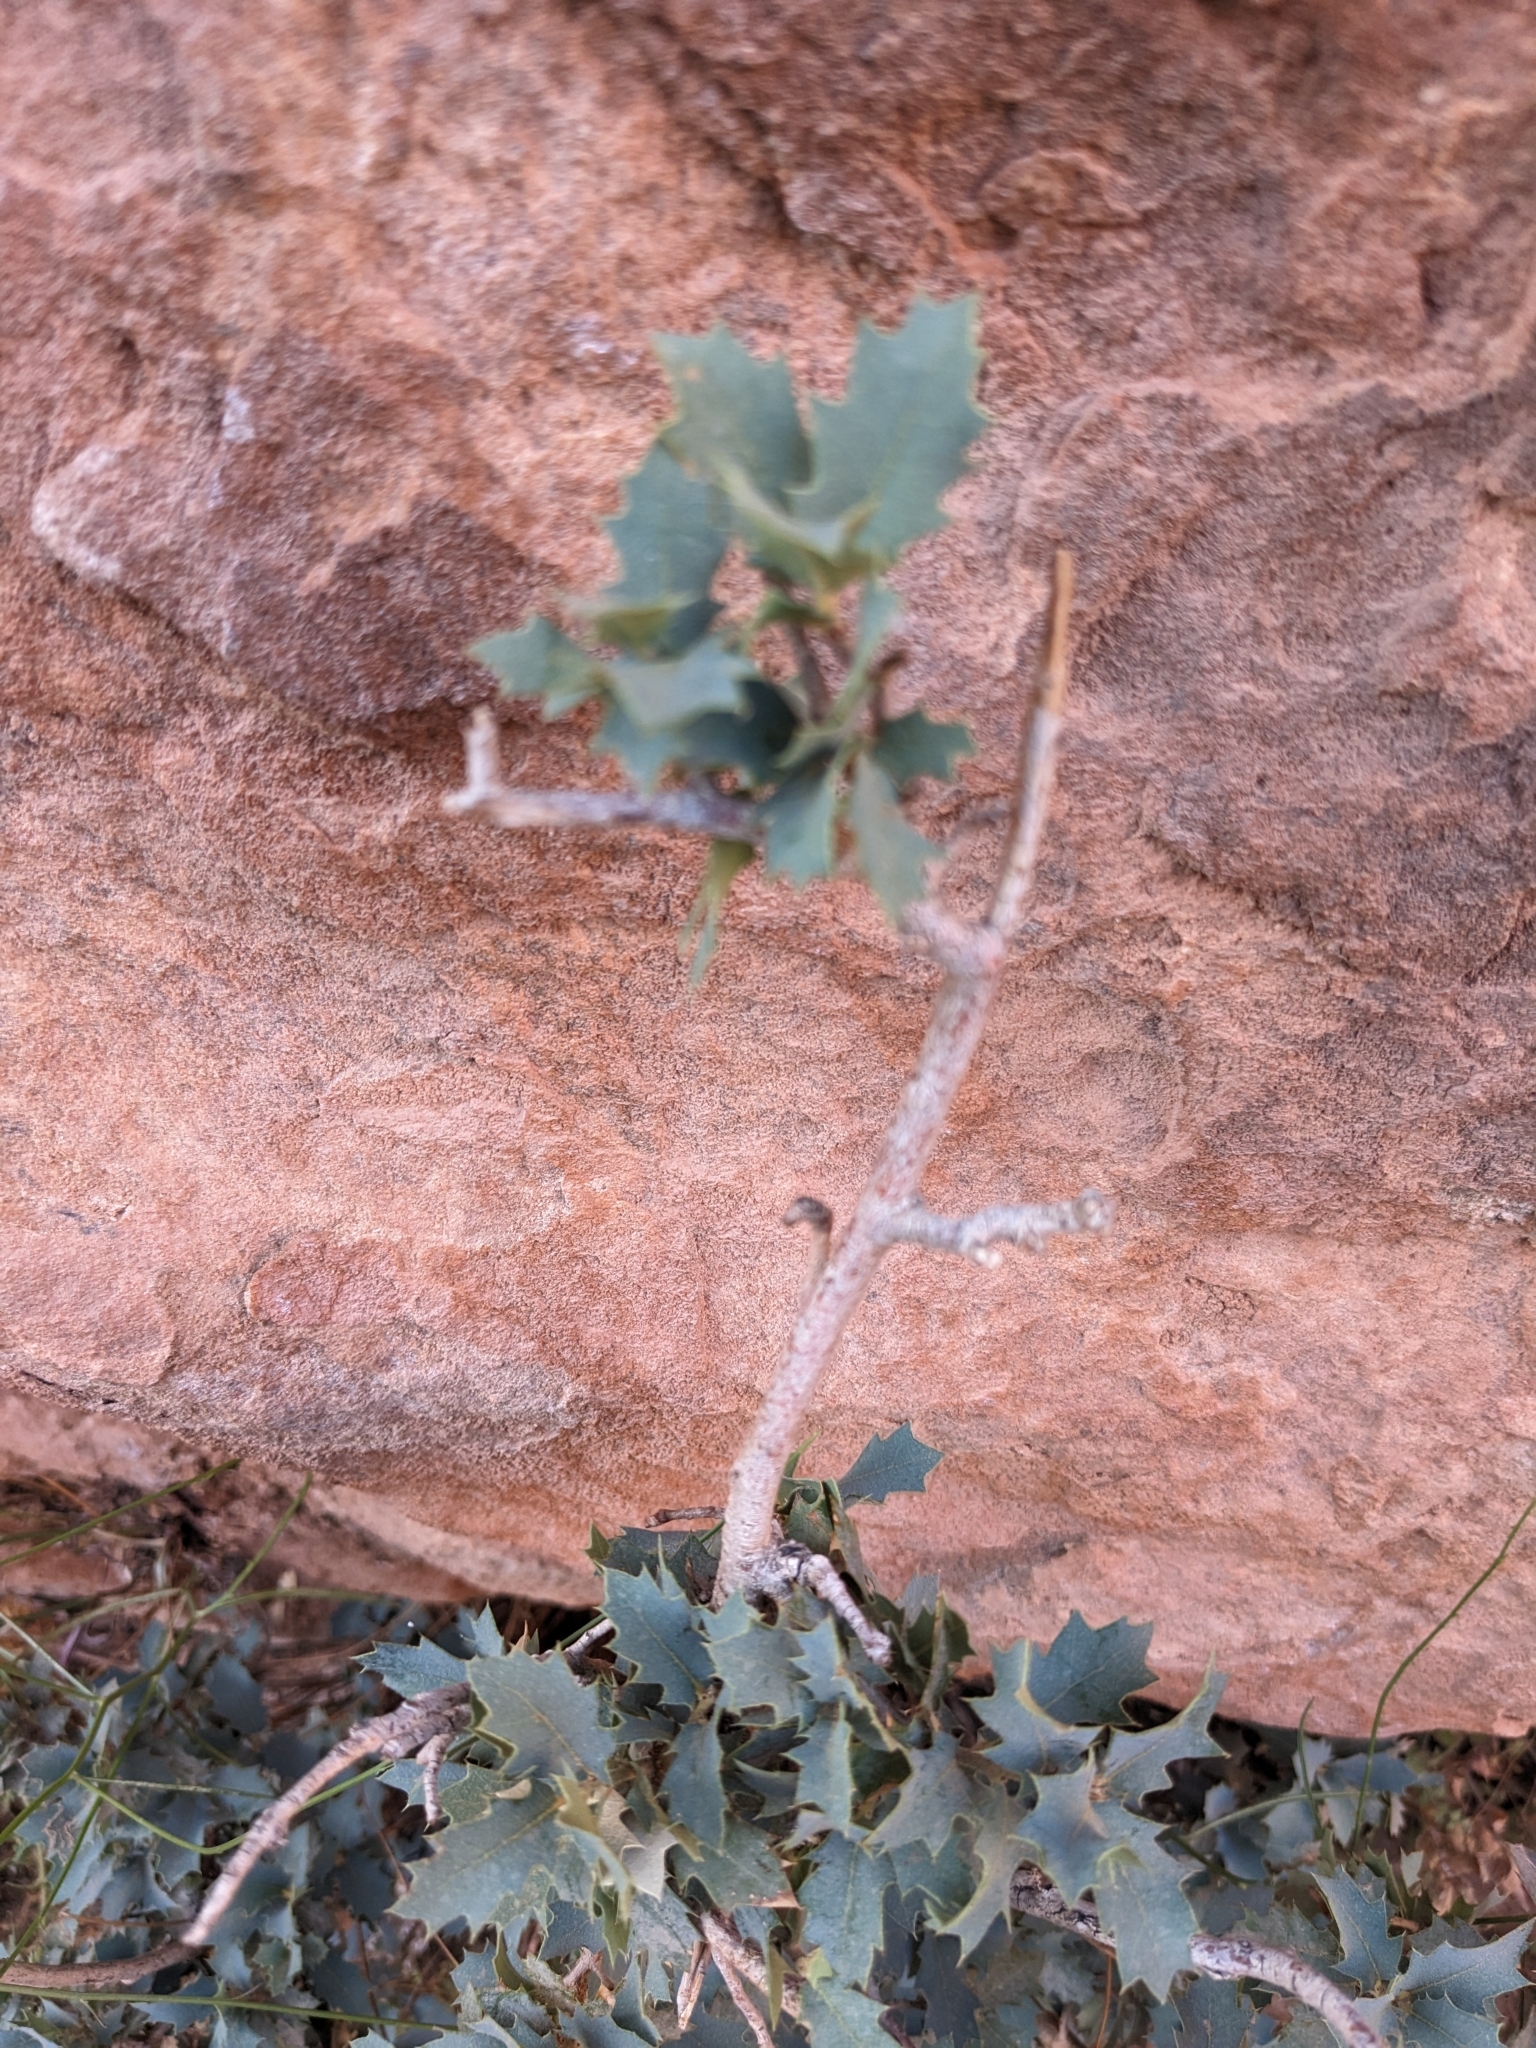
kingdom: Plantae
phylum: Tracheophyta
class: Magnoliopsida
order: Fagales
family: Fagaceae
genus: Quercus
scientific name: Quercus turbinella
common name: Sonoran scrub oak
